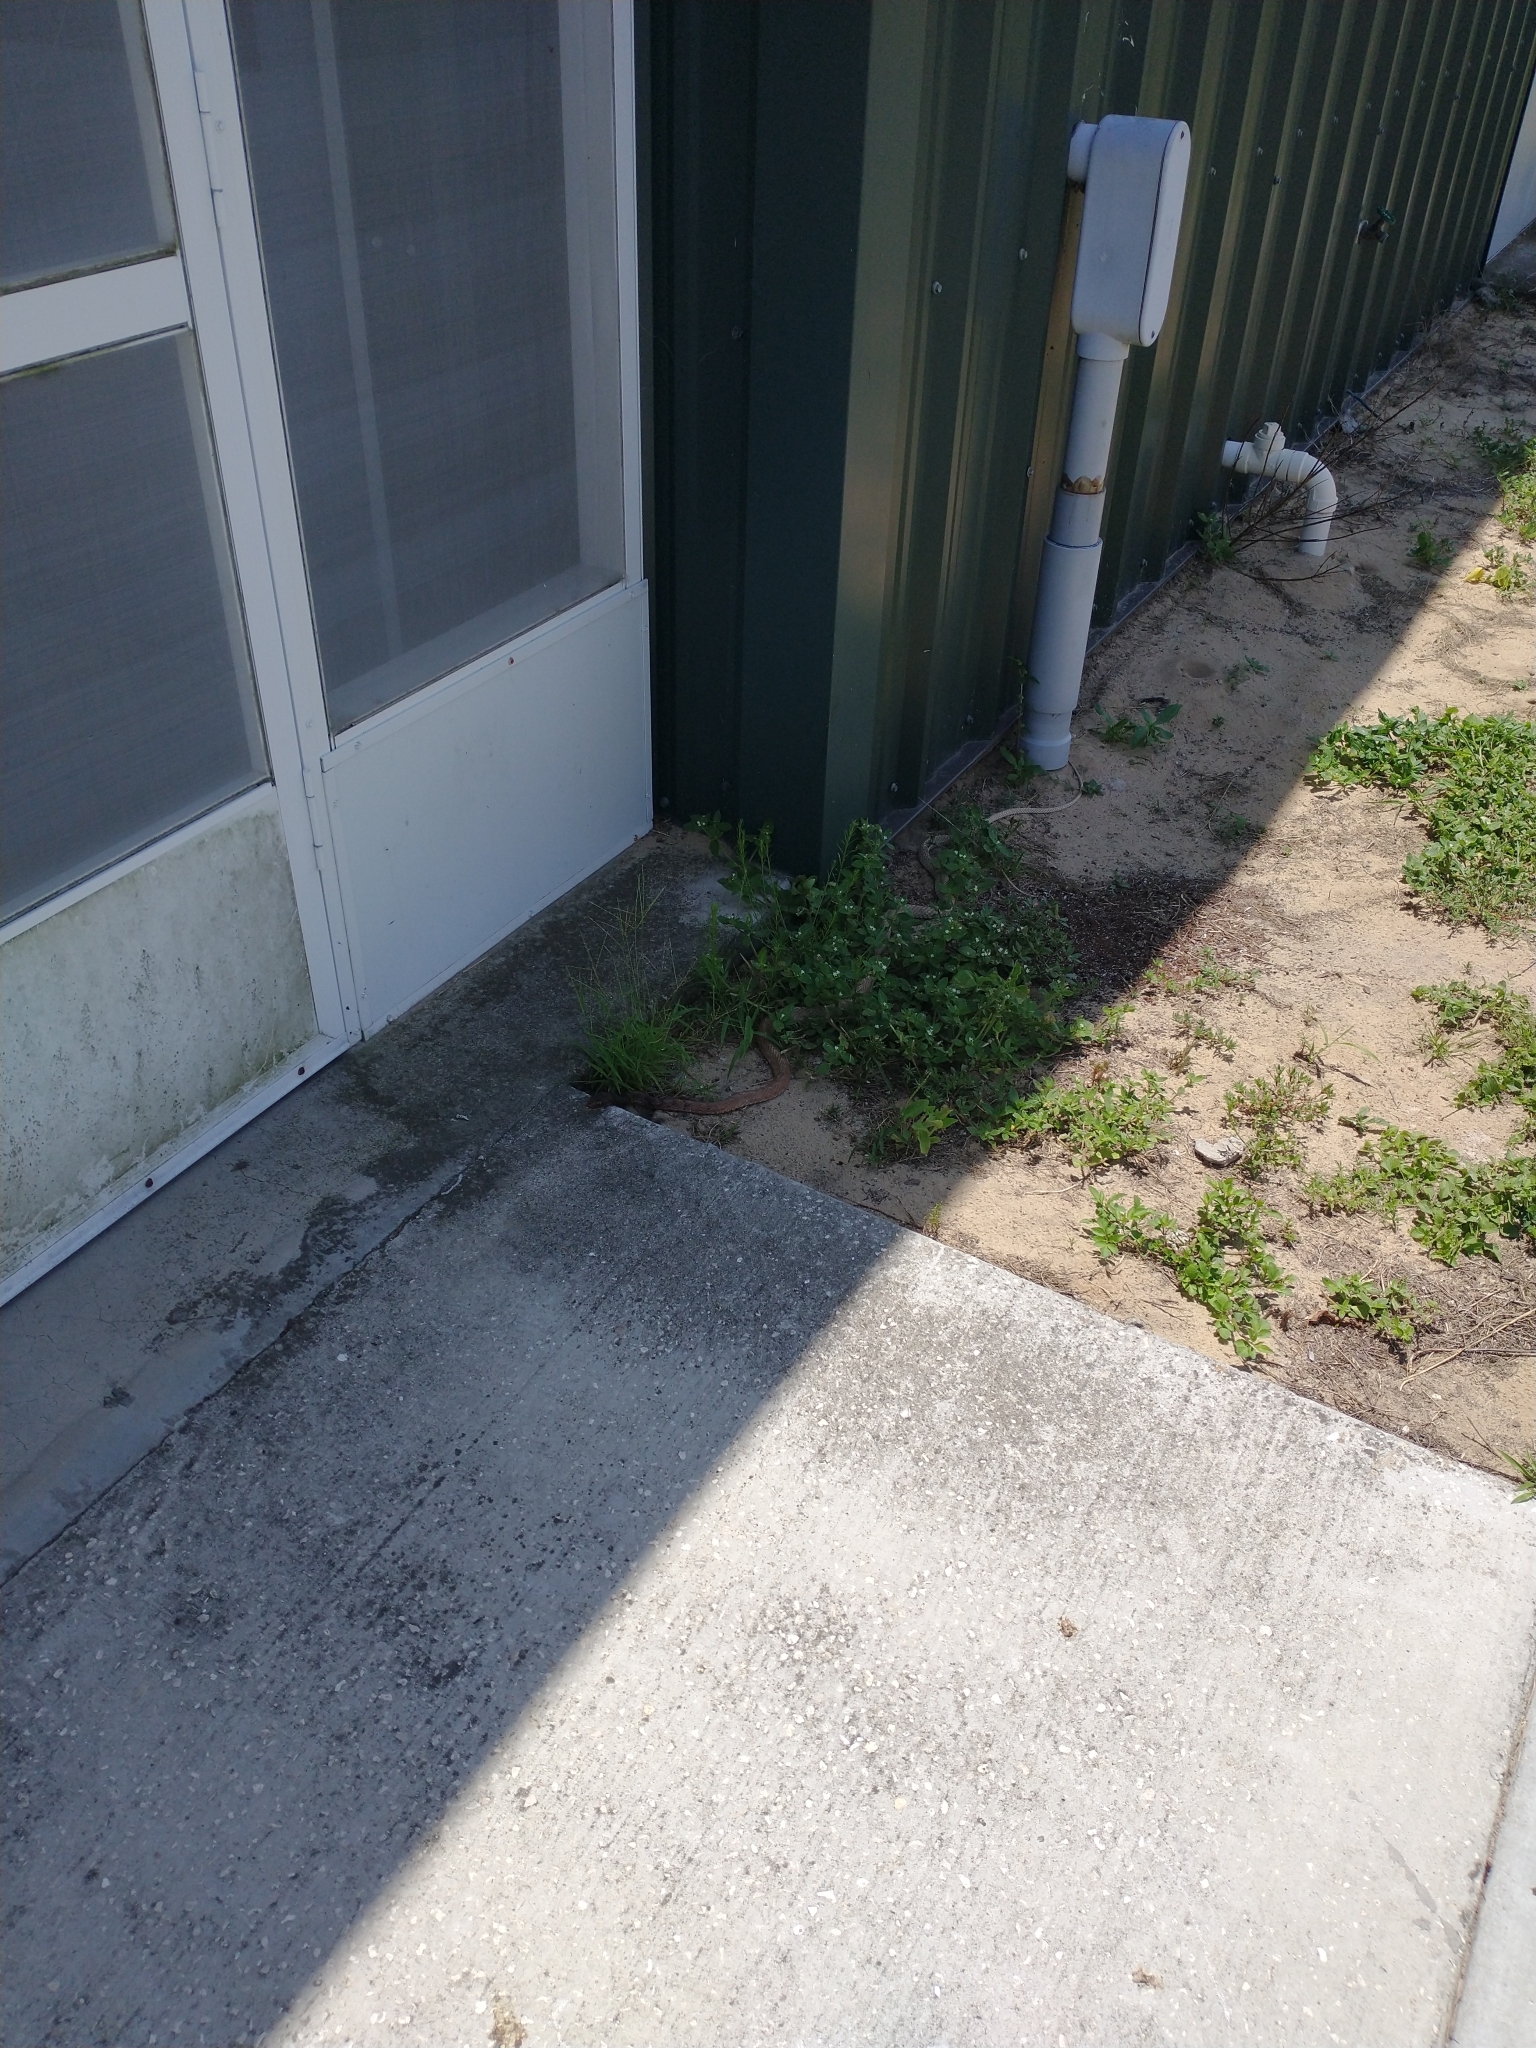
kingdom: Animalia
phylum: Chordata
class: Squamata
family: Colubridae
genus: Masticophis
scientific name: Masticophis flagellum
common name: Coachwhip
